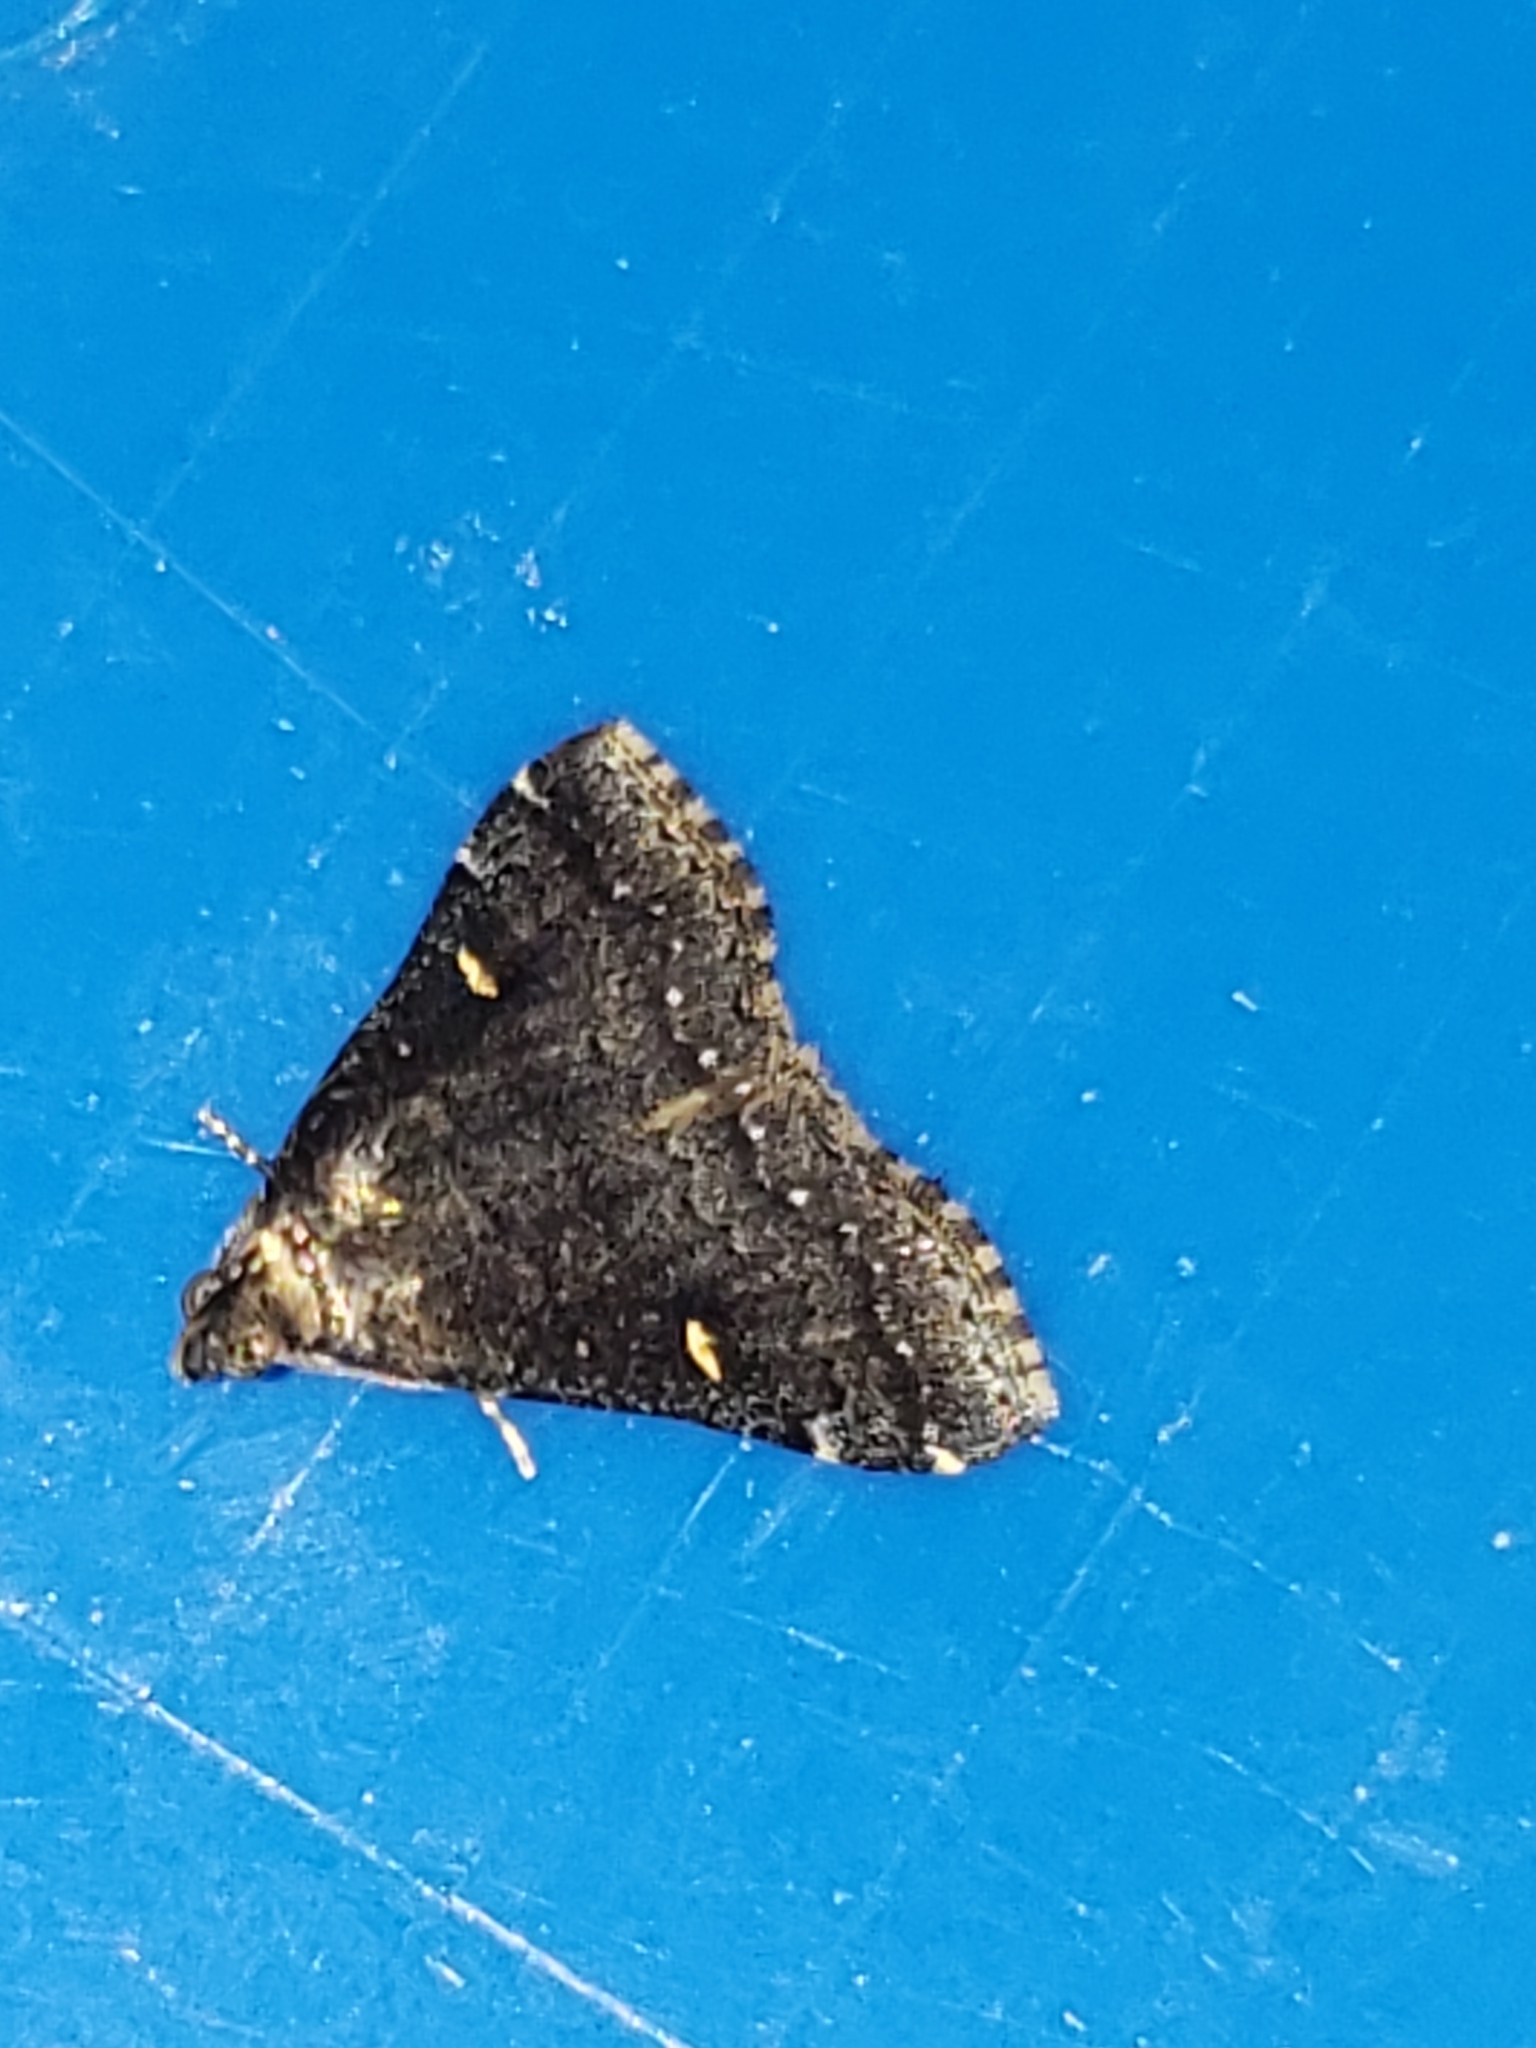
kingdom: Animalia
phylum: Arthropoda
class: Insecta
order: Lepidoptera
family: Erebidae
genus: Tetanolita
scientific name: Tetanolita mynesalis
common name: Smoky tetanolita moth
